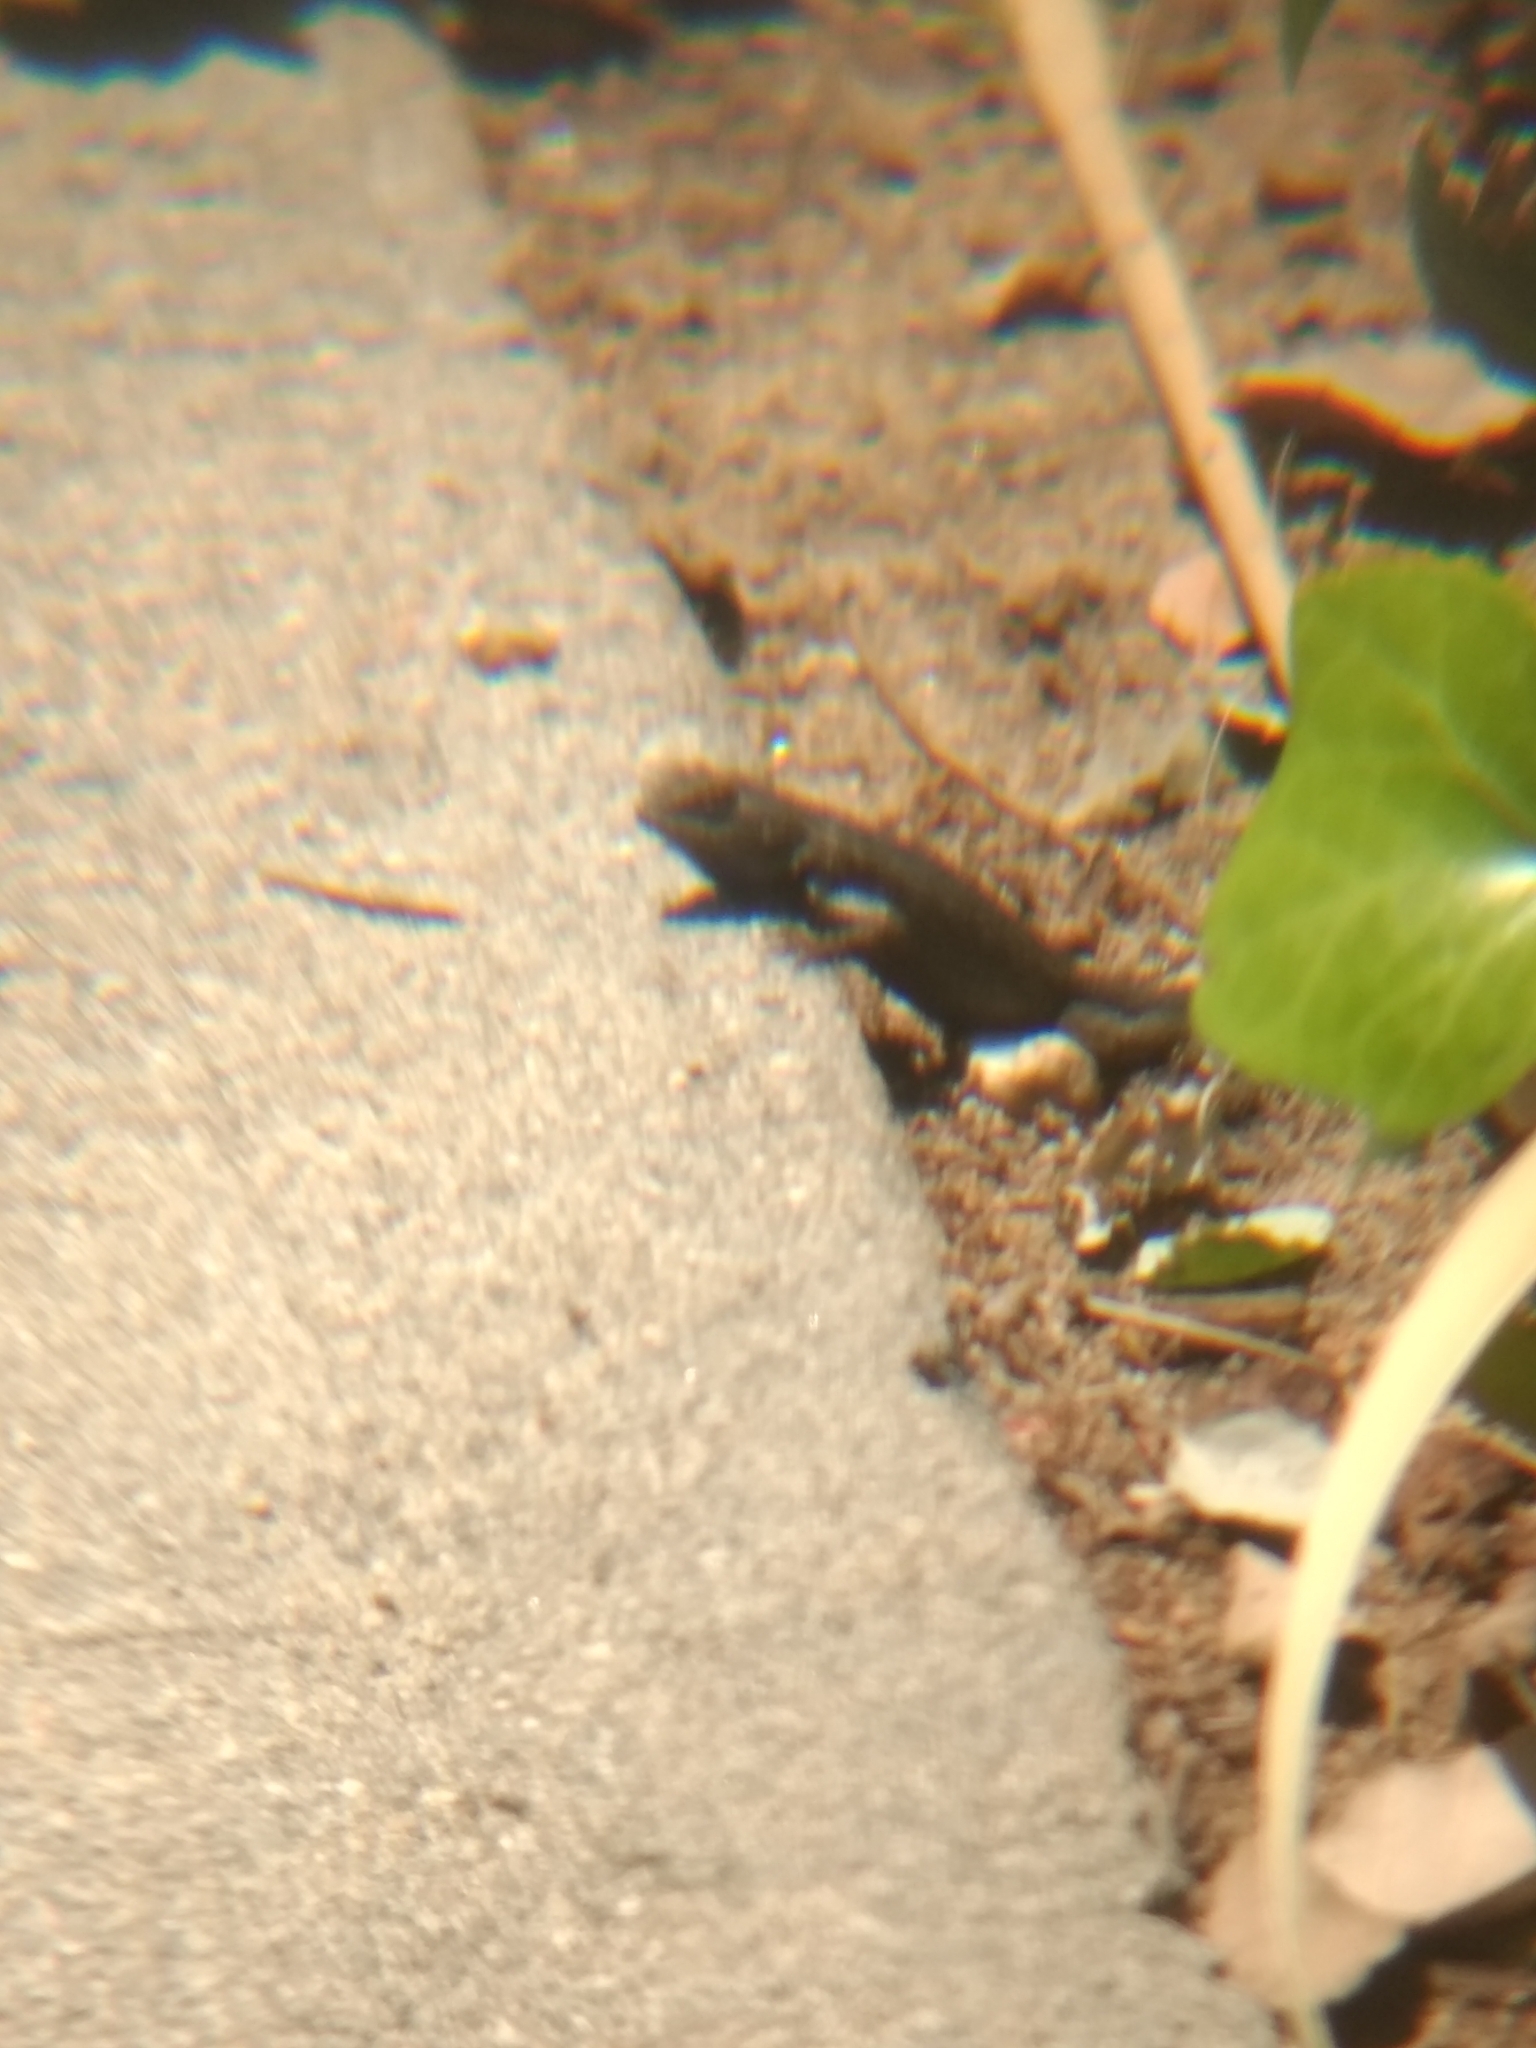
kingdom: Animalia
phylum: Chordata
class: Squamata
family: Phrynosomatidae
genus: Sceloporus
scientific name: Sceloporus occidentalis
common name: Western fence lizard
